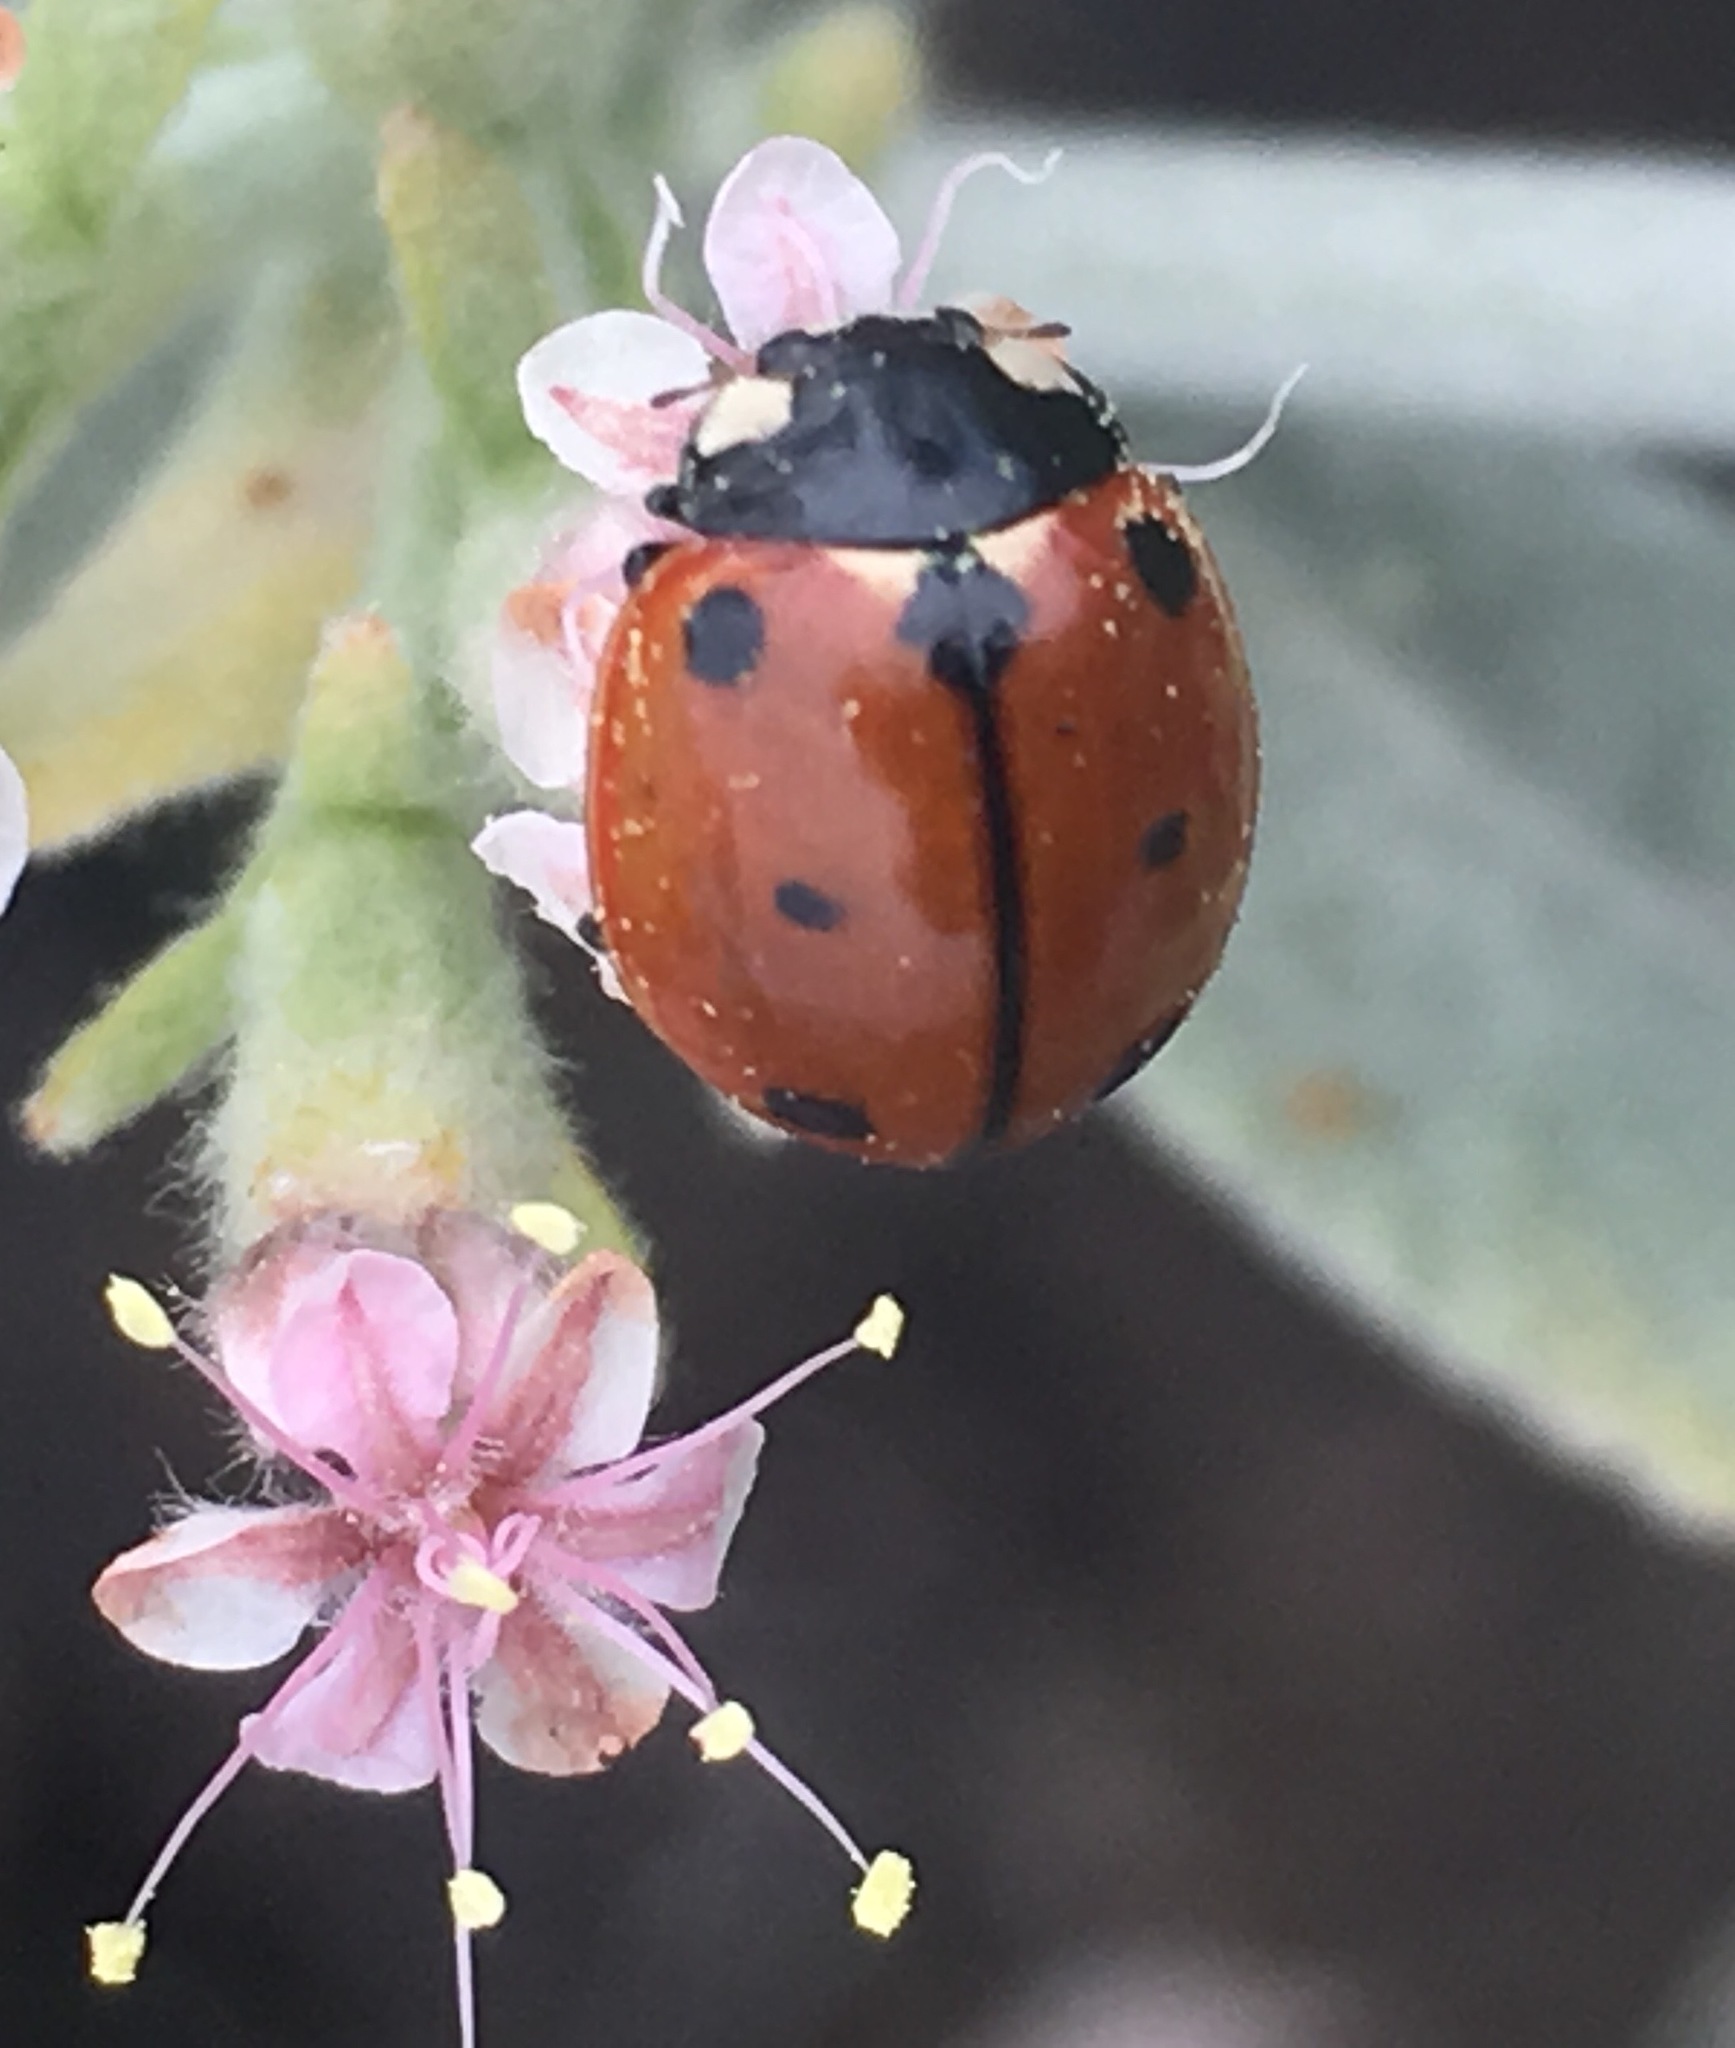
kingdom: Animalia
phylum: Arthropoda
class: Insecta
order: Coleoptera
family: Coccinellidae
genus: Coccinella
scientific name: Coccinella californica
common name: Lady beetle
